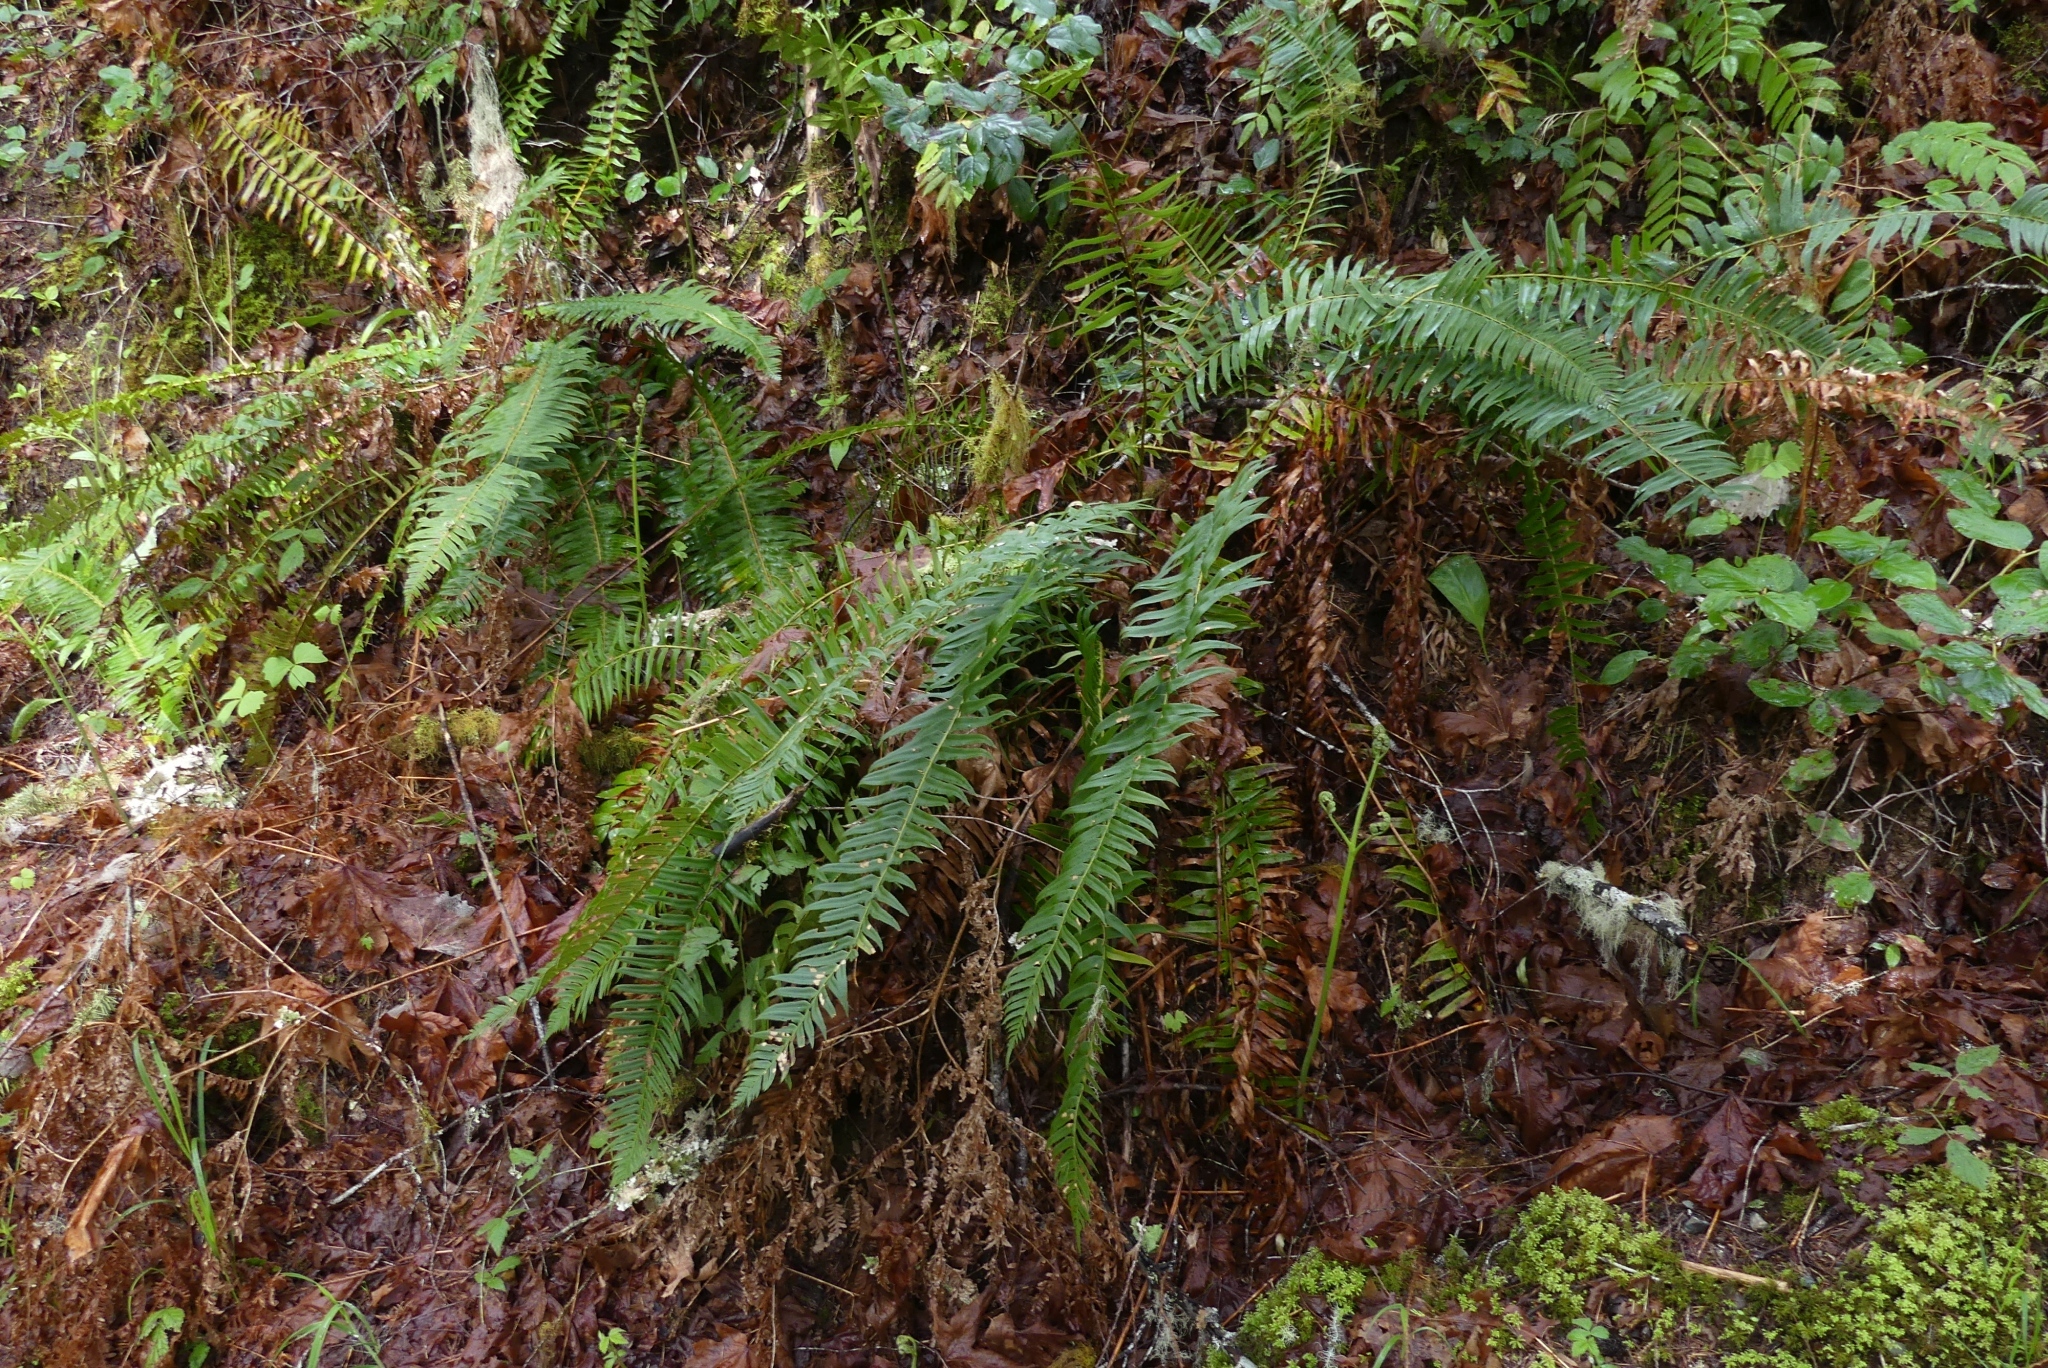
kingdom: Plantae
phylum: Tracheophyta
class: Polypodiopsida
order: Polypodiales
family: Dryopteridaceae
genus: Polystichum
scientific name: Polystichum munitum
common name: Western sword-fern
